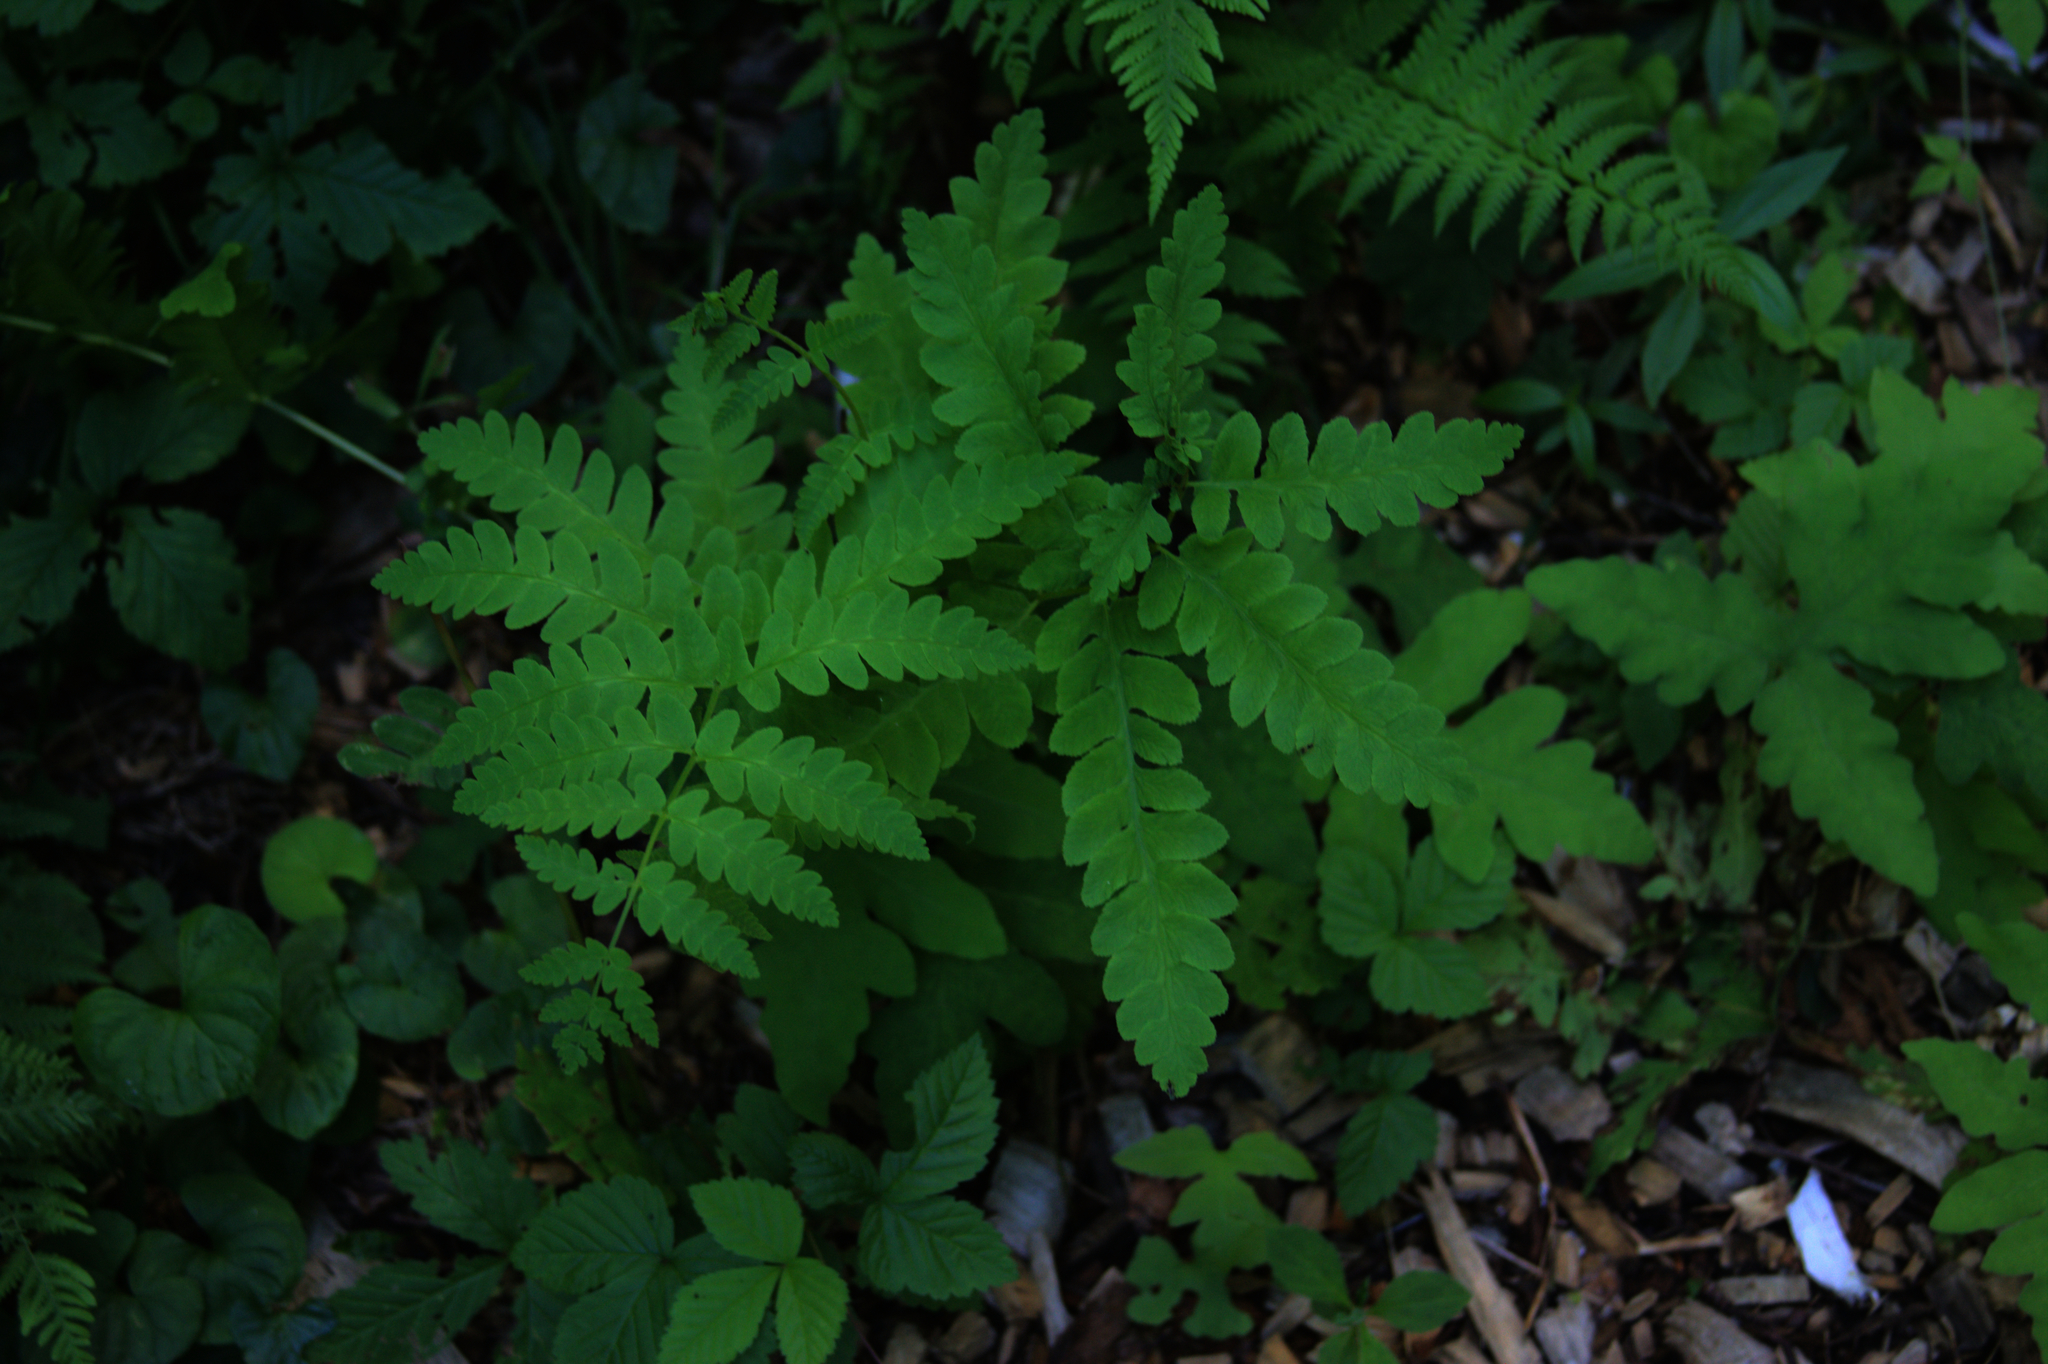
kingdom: Plantae
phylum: Tracheophyta
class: Polypodiopsida
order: Osmundales
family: Osmundaceae
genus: Claytosmunda
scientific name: Claytosmunda claytoniana
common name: Clayton's fern
